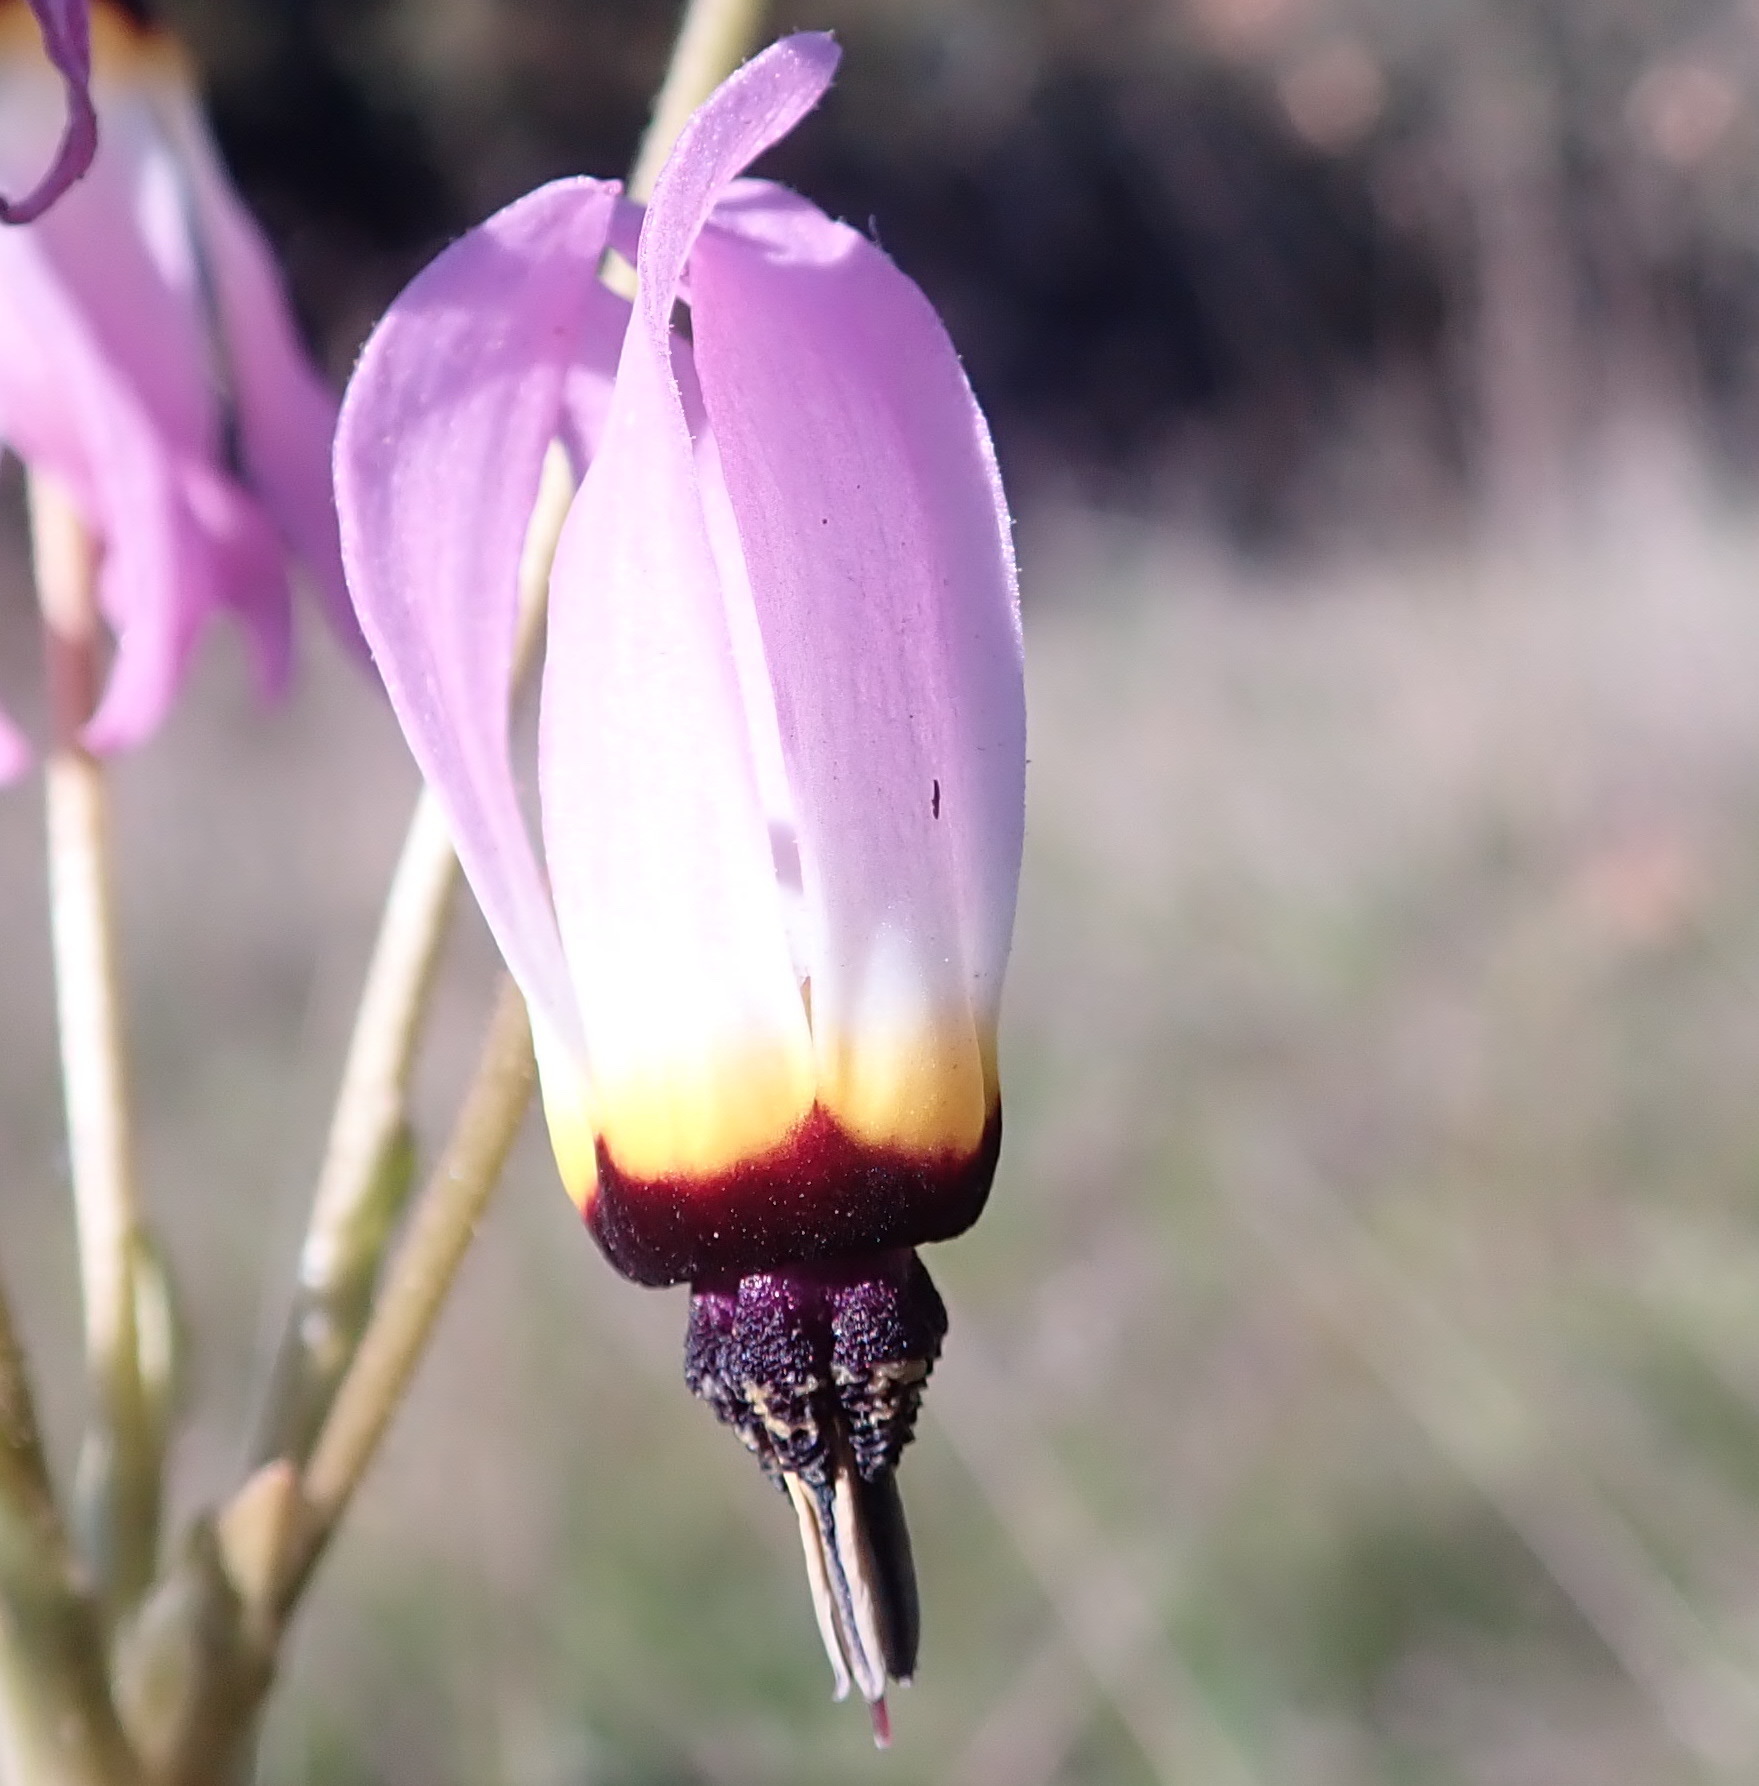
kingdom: Plantae
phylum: Tracheophyta
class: Magnoliopsida
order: Ericales
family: Primulaceae
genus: Dodecatheon
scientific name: Dodecatheon clevelandii
